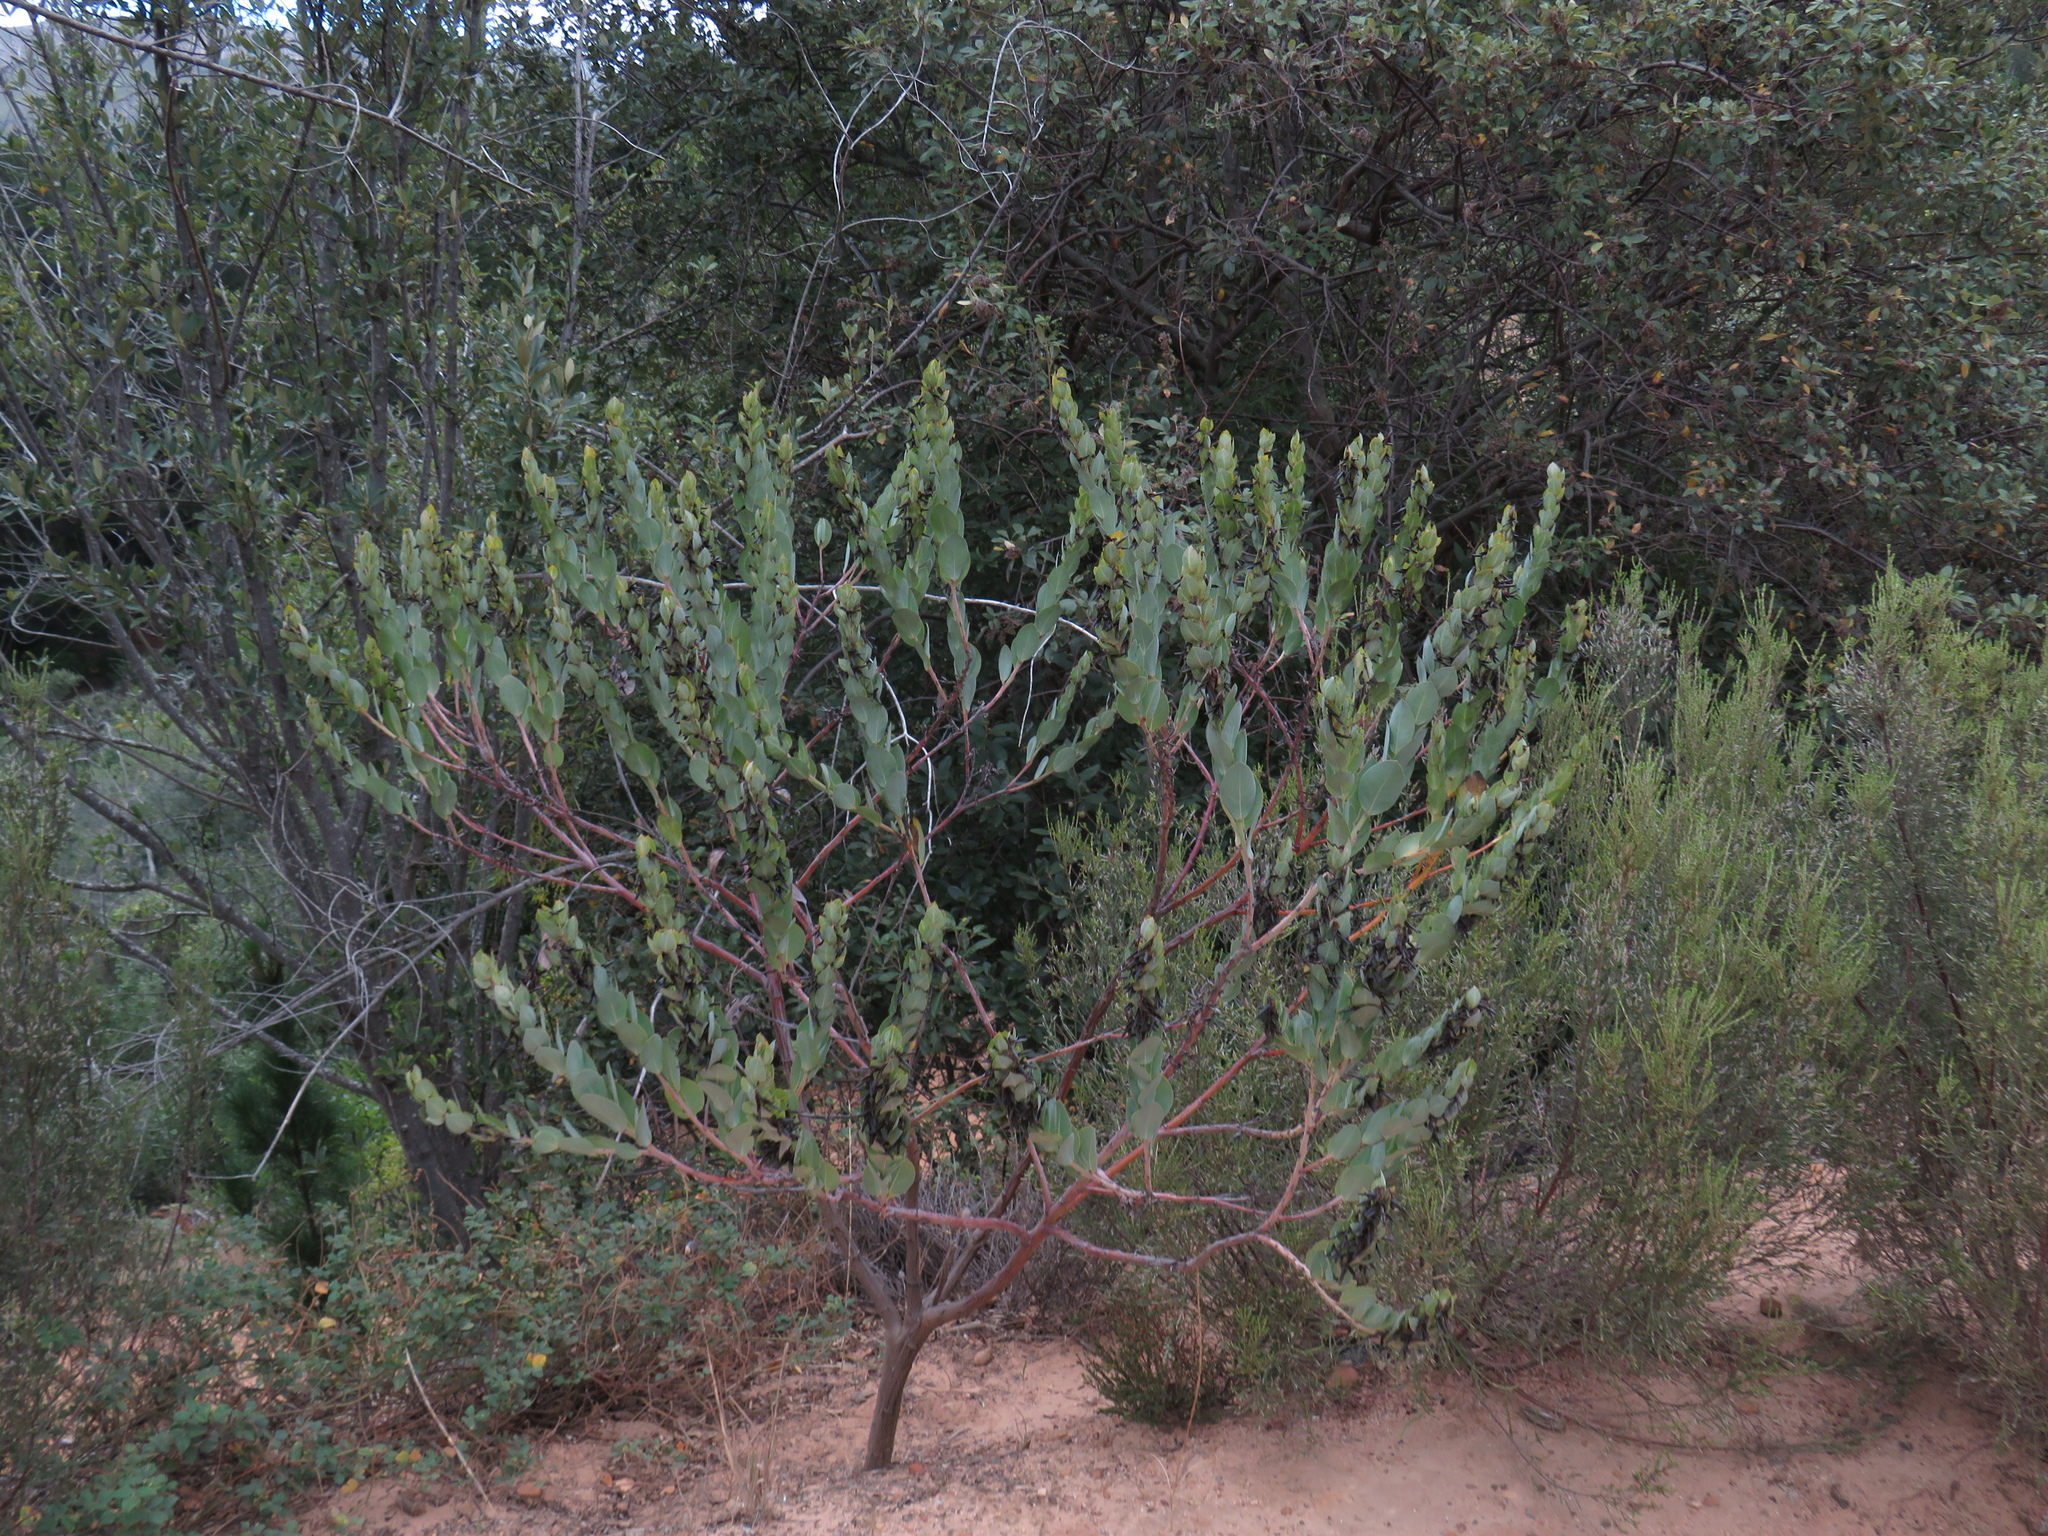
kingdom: Plantae
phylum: Tracheophyta
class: Magnoliopsida
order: Fabales
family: Fabaceae
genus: Rafnia
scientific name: Rafnia triflora
